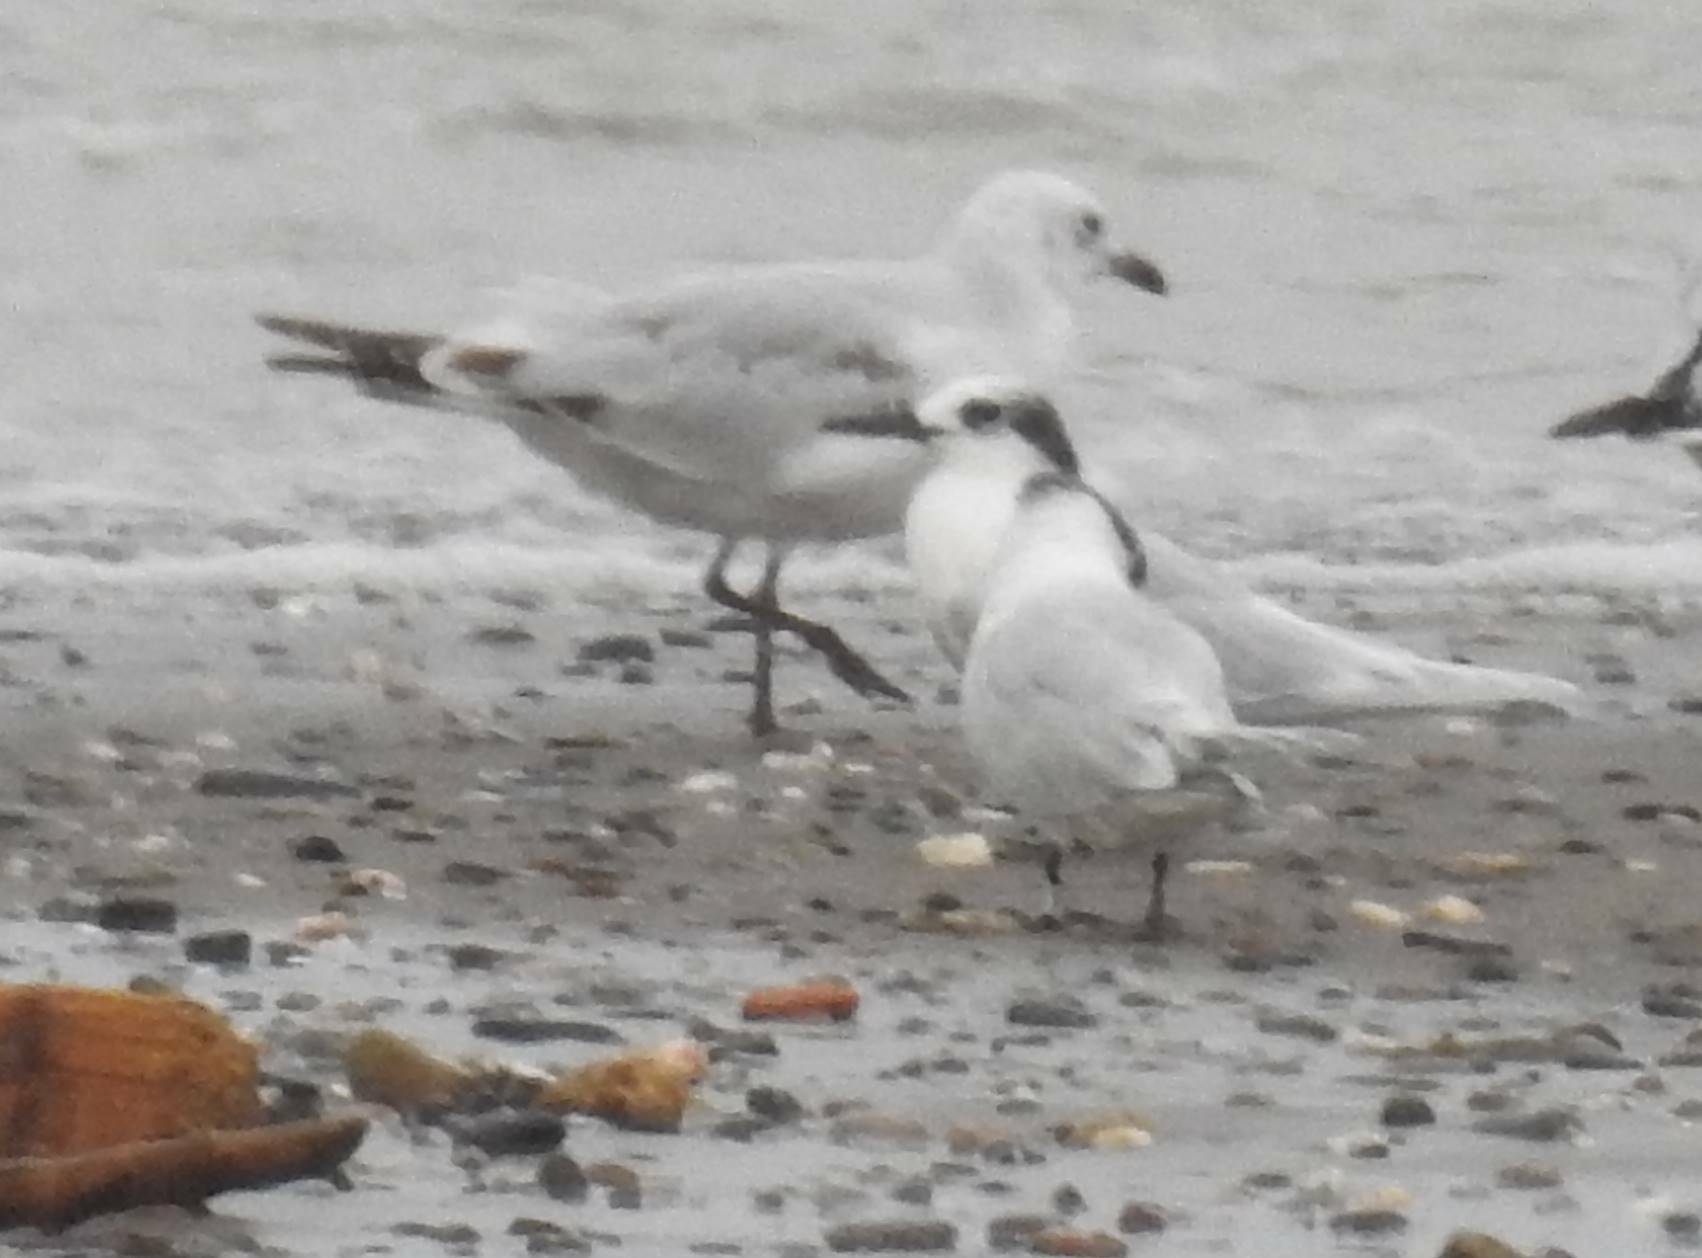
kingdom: Animalia
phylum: Chordata
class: Aves
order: Charadriiformes
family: Laridae
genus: Thalasseus
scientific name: Thalasseus sandvicensis
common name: Sandwich tern
